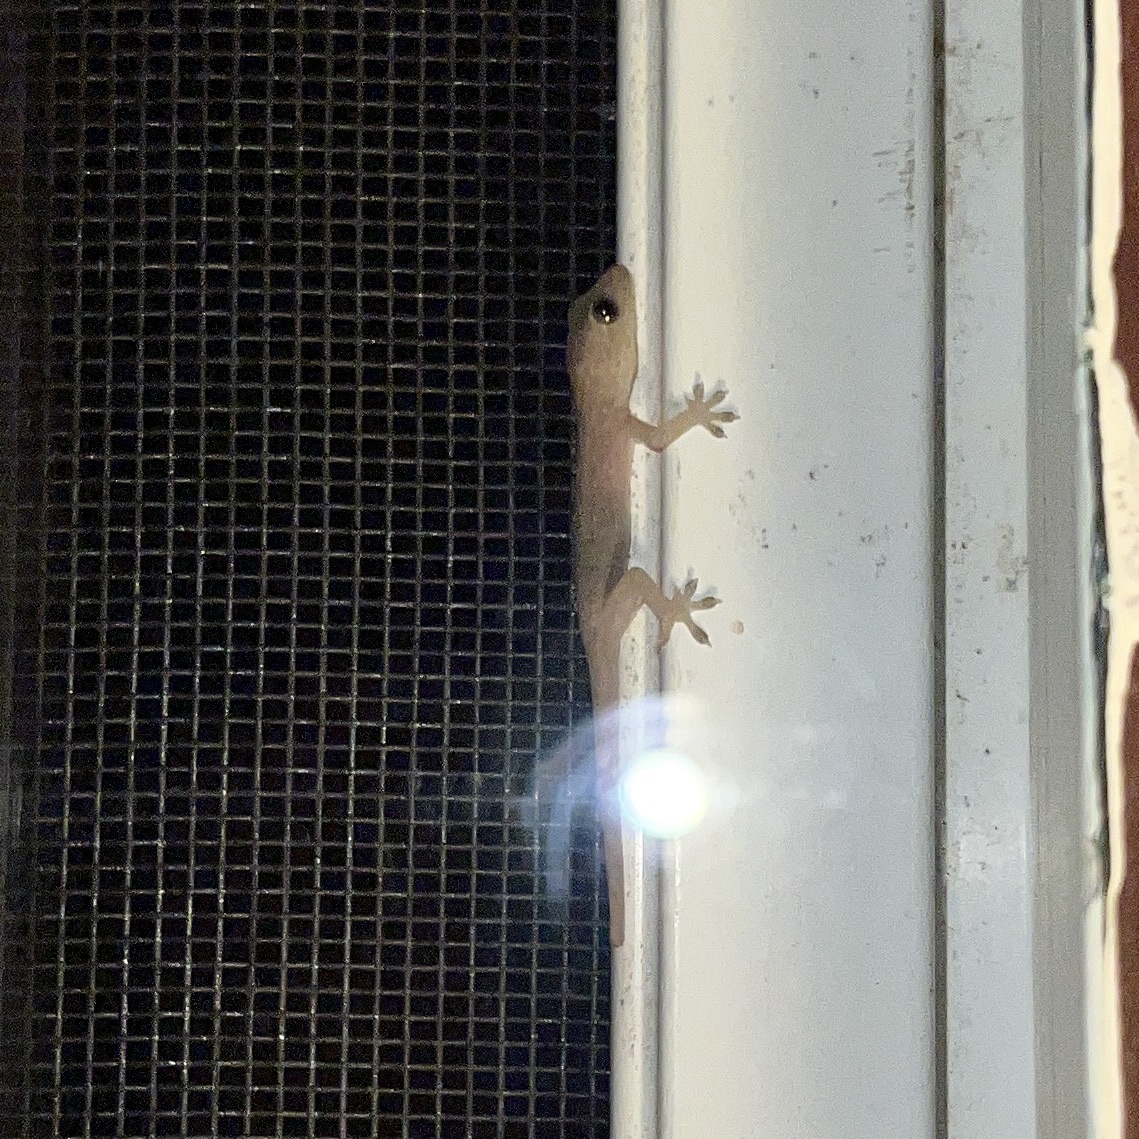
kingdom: Animalia
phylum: Chordata
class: Squamata
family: Gekkonidae
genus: Hemidactylus
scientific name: Hemidactylus frenatus
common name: Common house gecko
